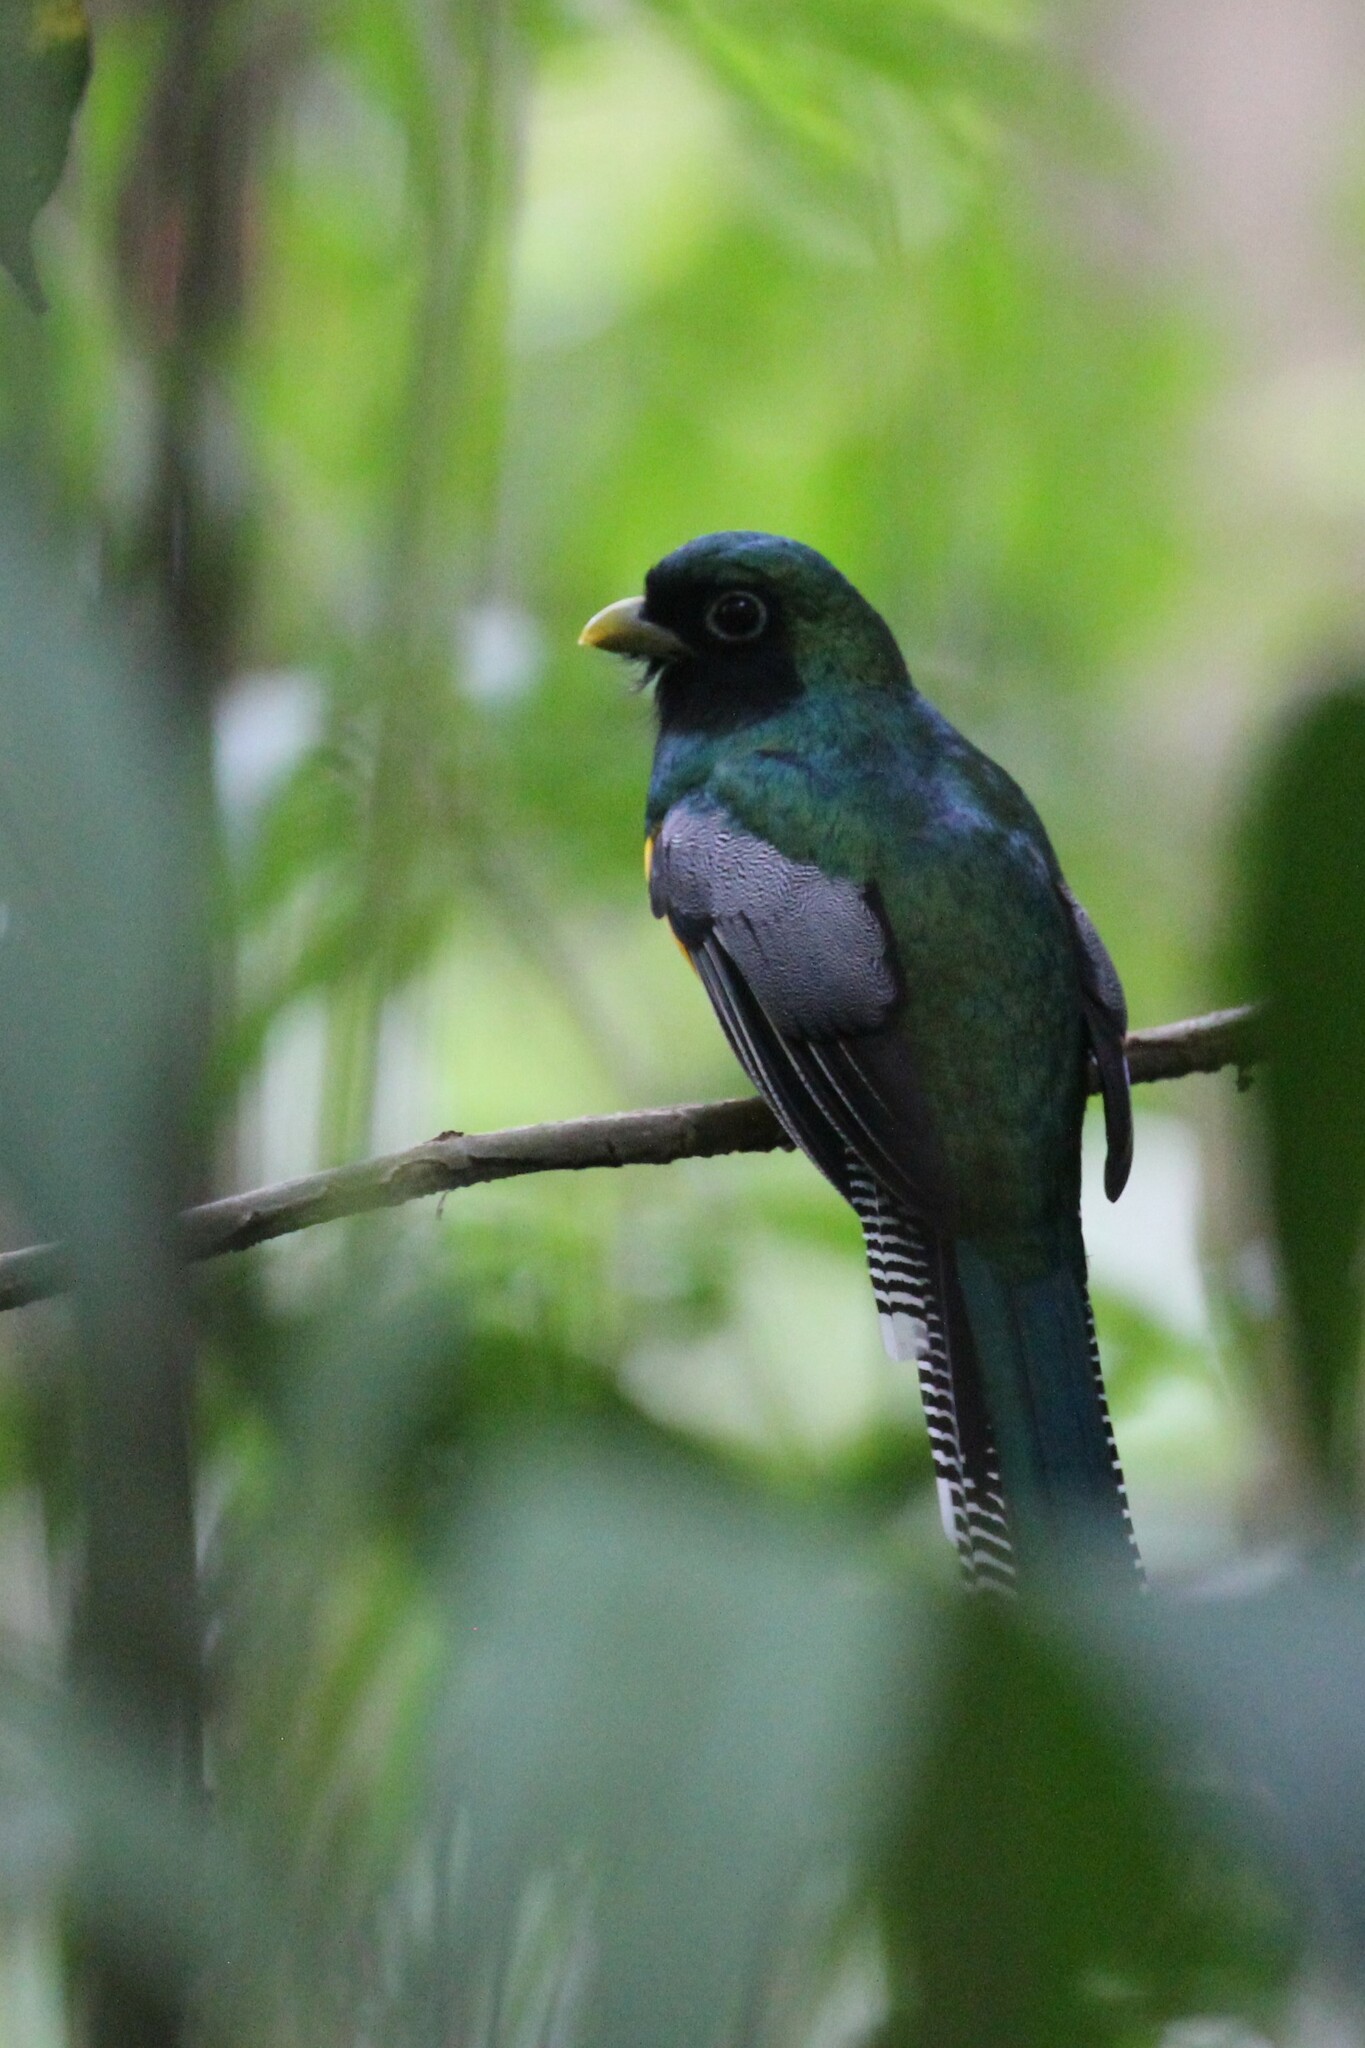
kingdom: Animalia
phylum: Chordata
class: Aves
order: Trogoniformes
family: Trogonidae
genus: Trogon
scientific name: Trogon rufus
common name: Black-throated trogon
